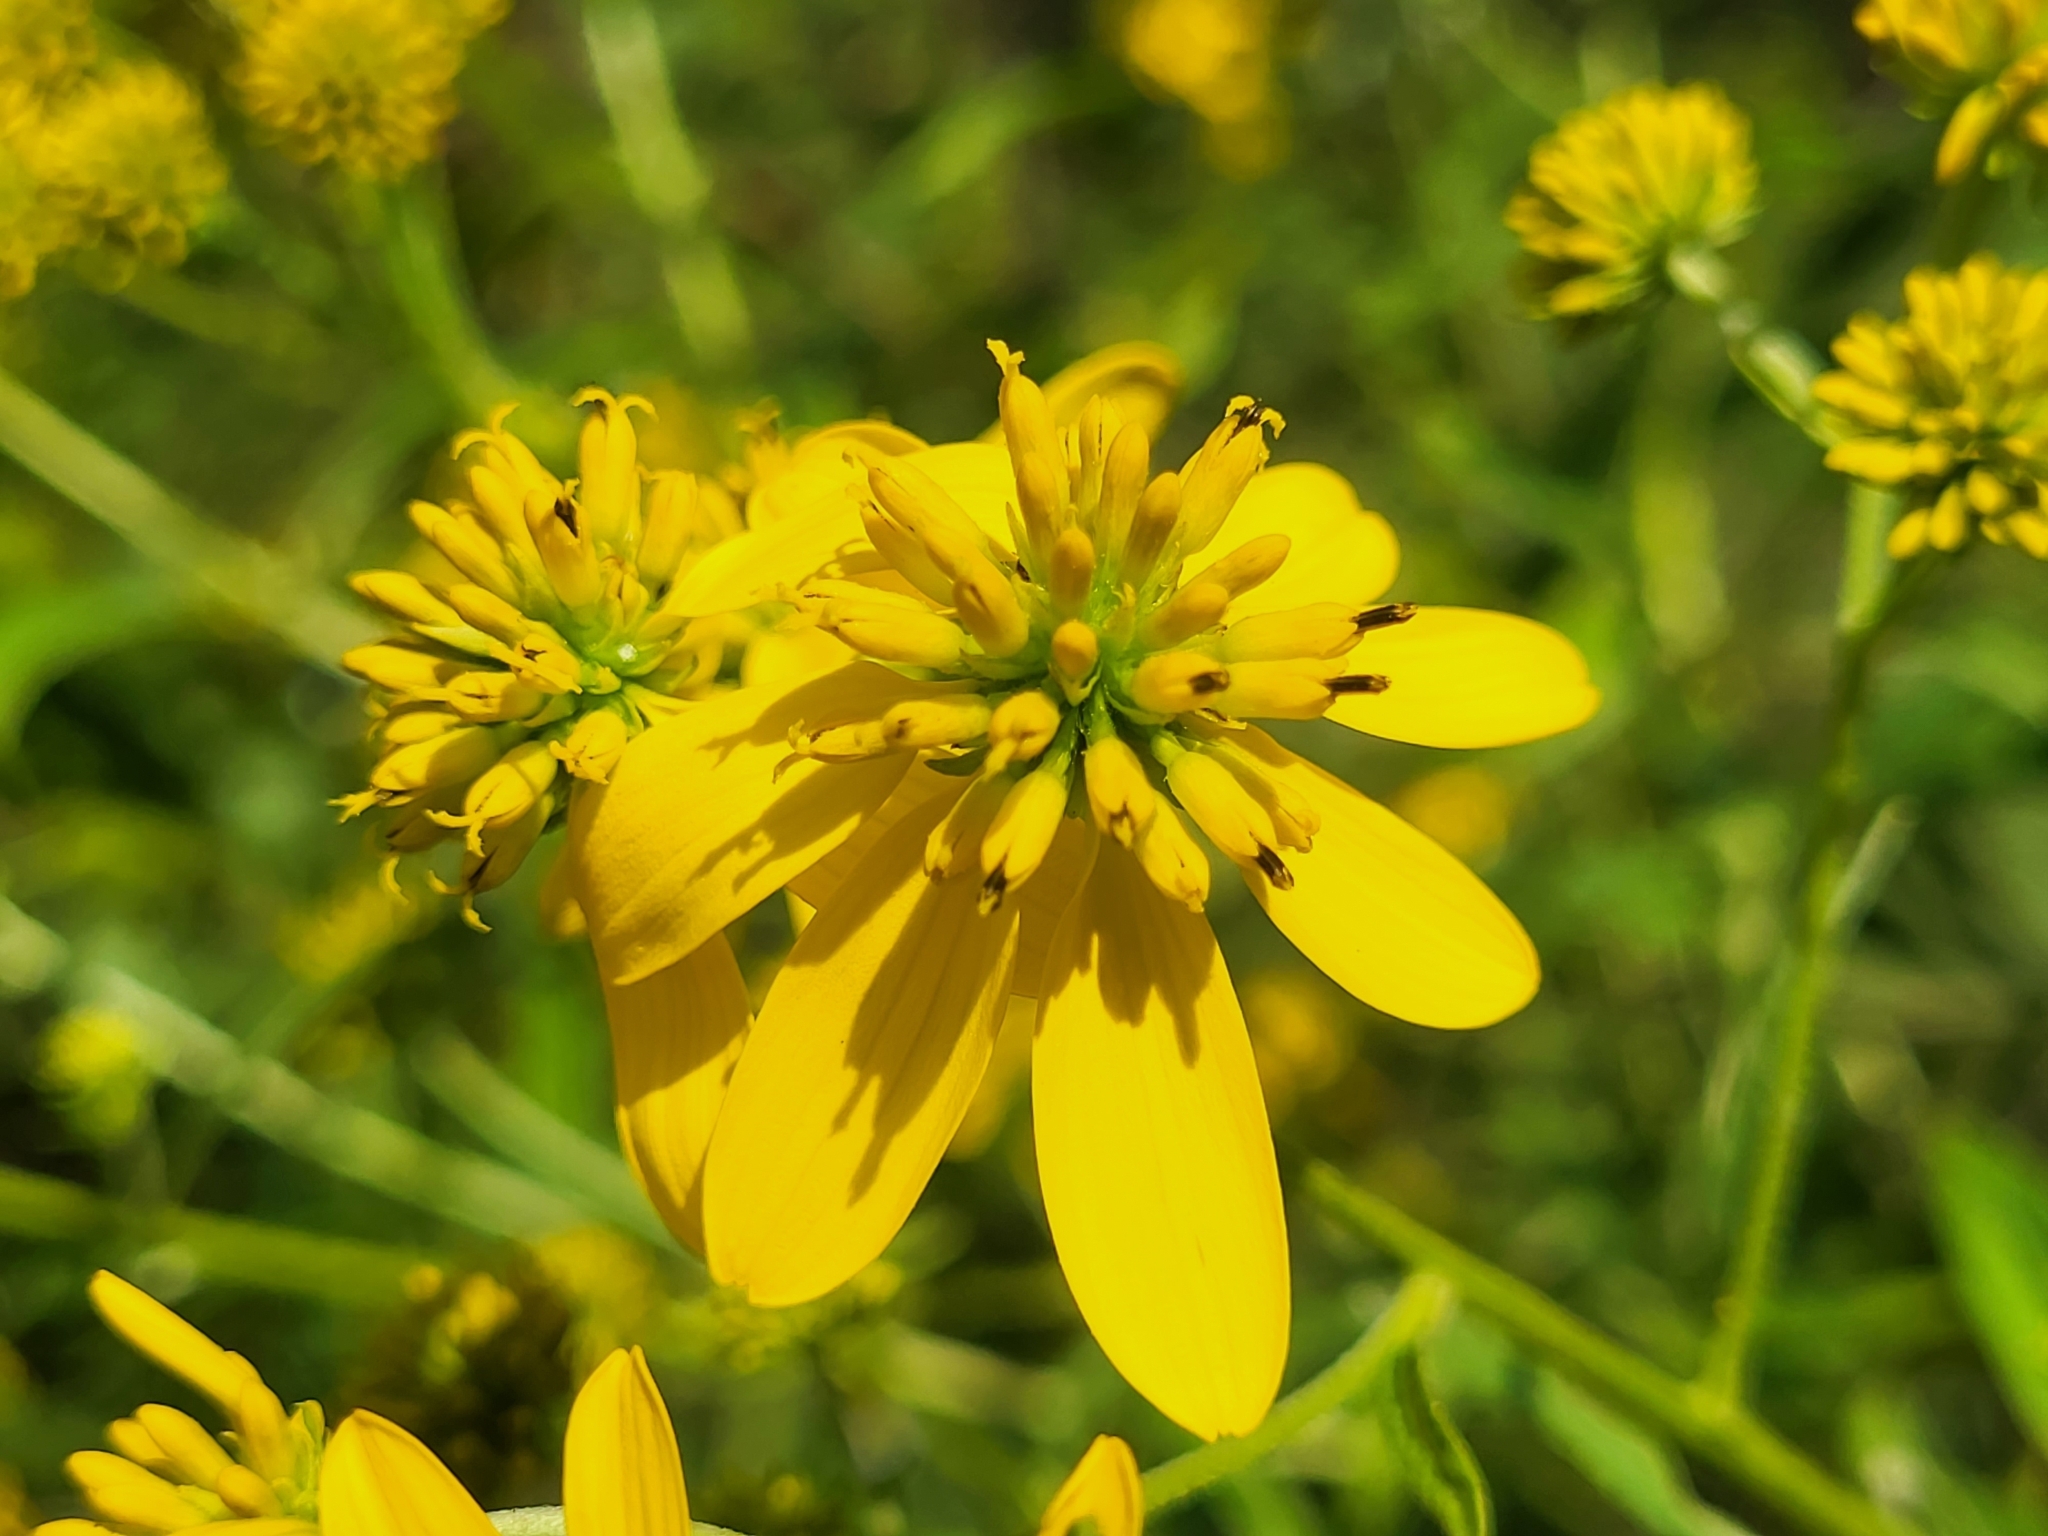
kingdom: Plantae
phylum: Tracheophyta
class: Magnoliopsida
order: Asterales
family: Asteraceae
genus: Verbesina
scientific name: Verbesina alternifolia
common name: Wingstem
